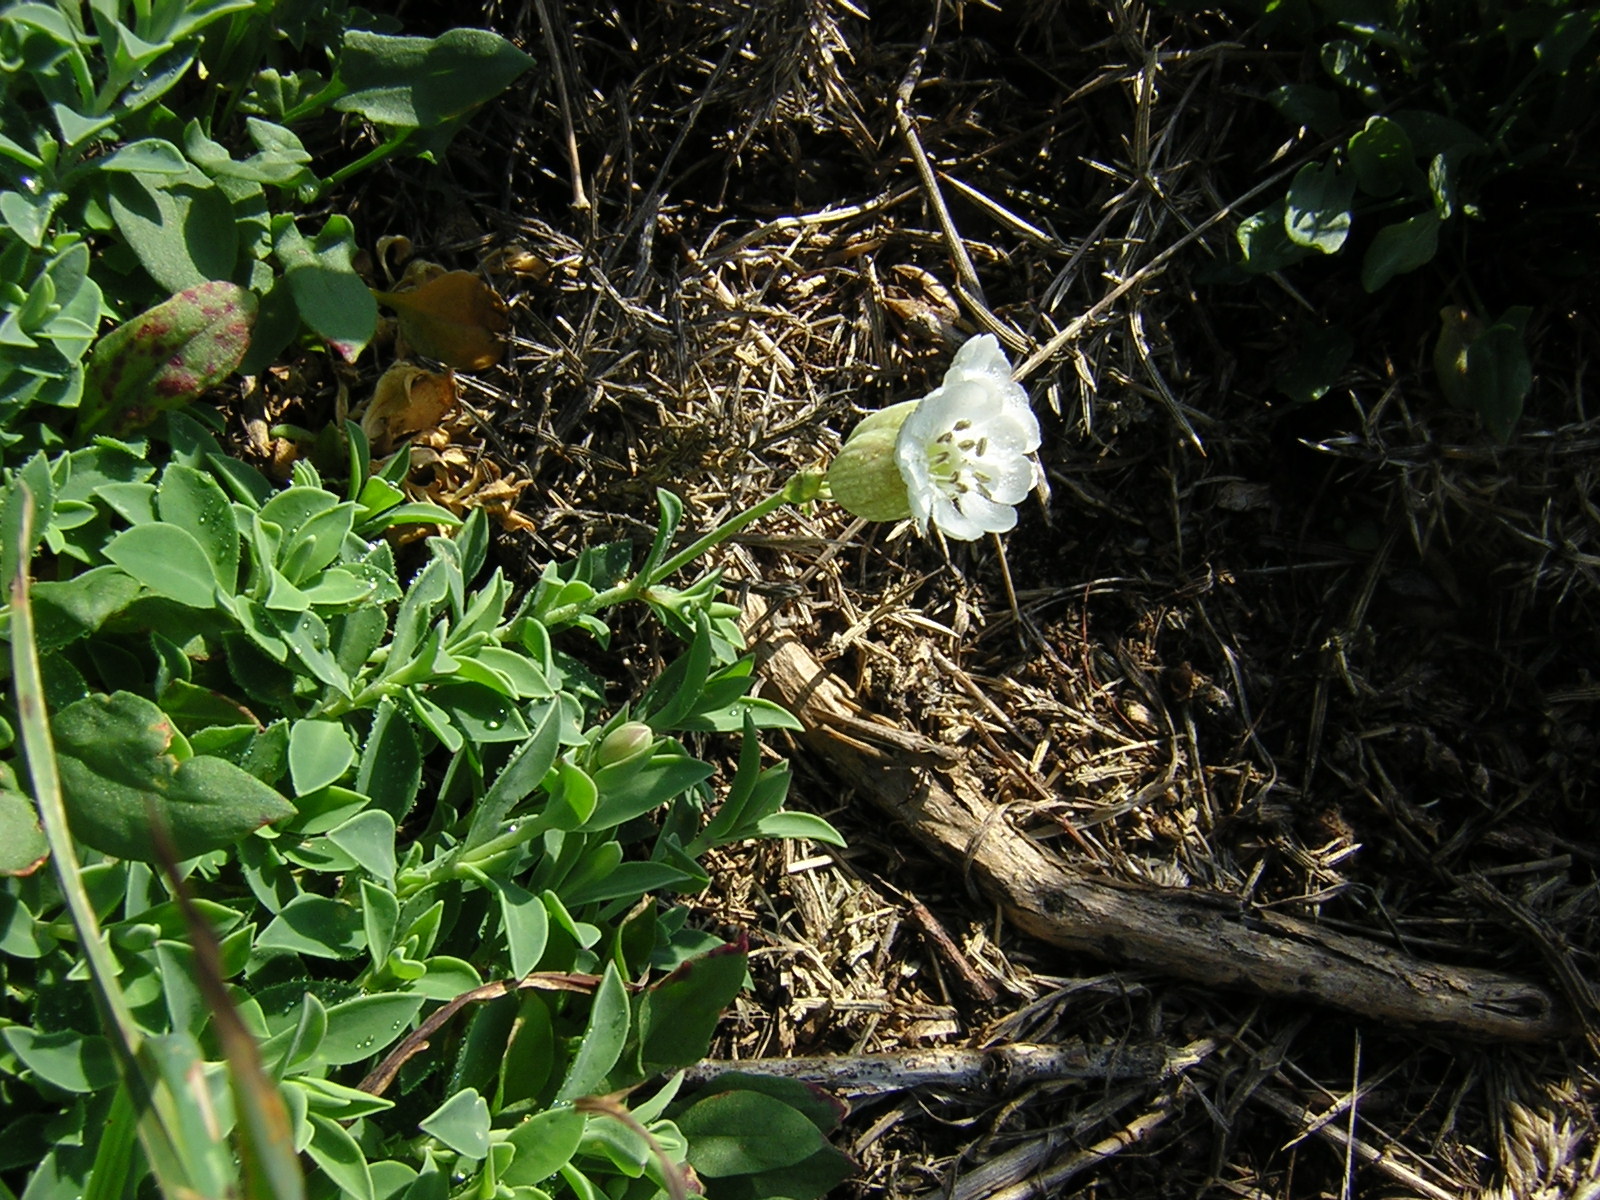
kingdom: Plantae
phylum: Tracheophyta
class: Magnoliopsida
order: Caryophyllales
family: Caryophyllaceae
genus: Silene
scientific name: Silene uniflora
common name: Sea campion
